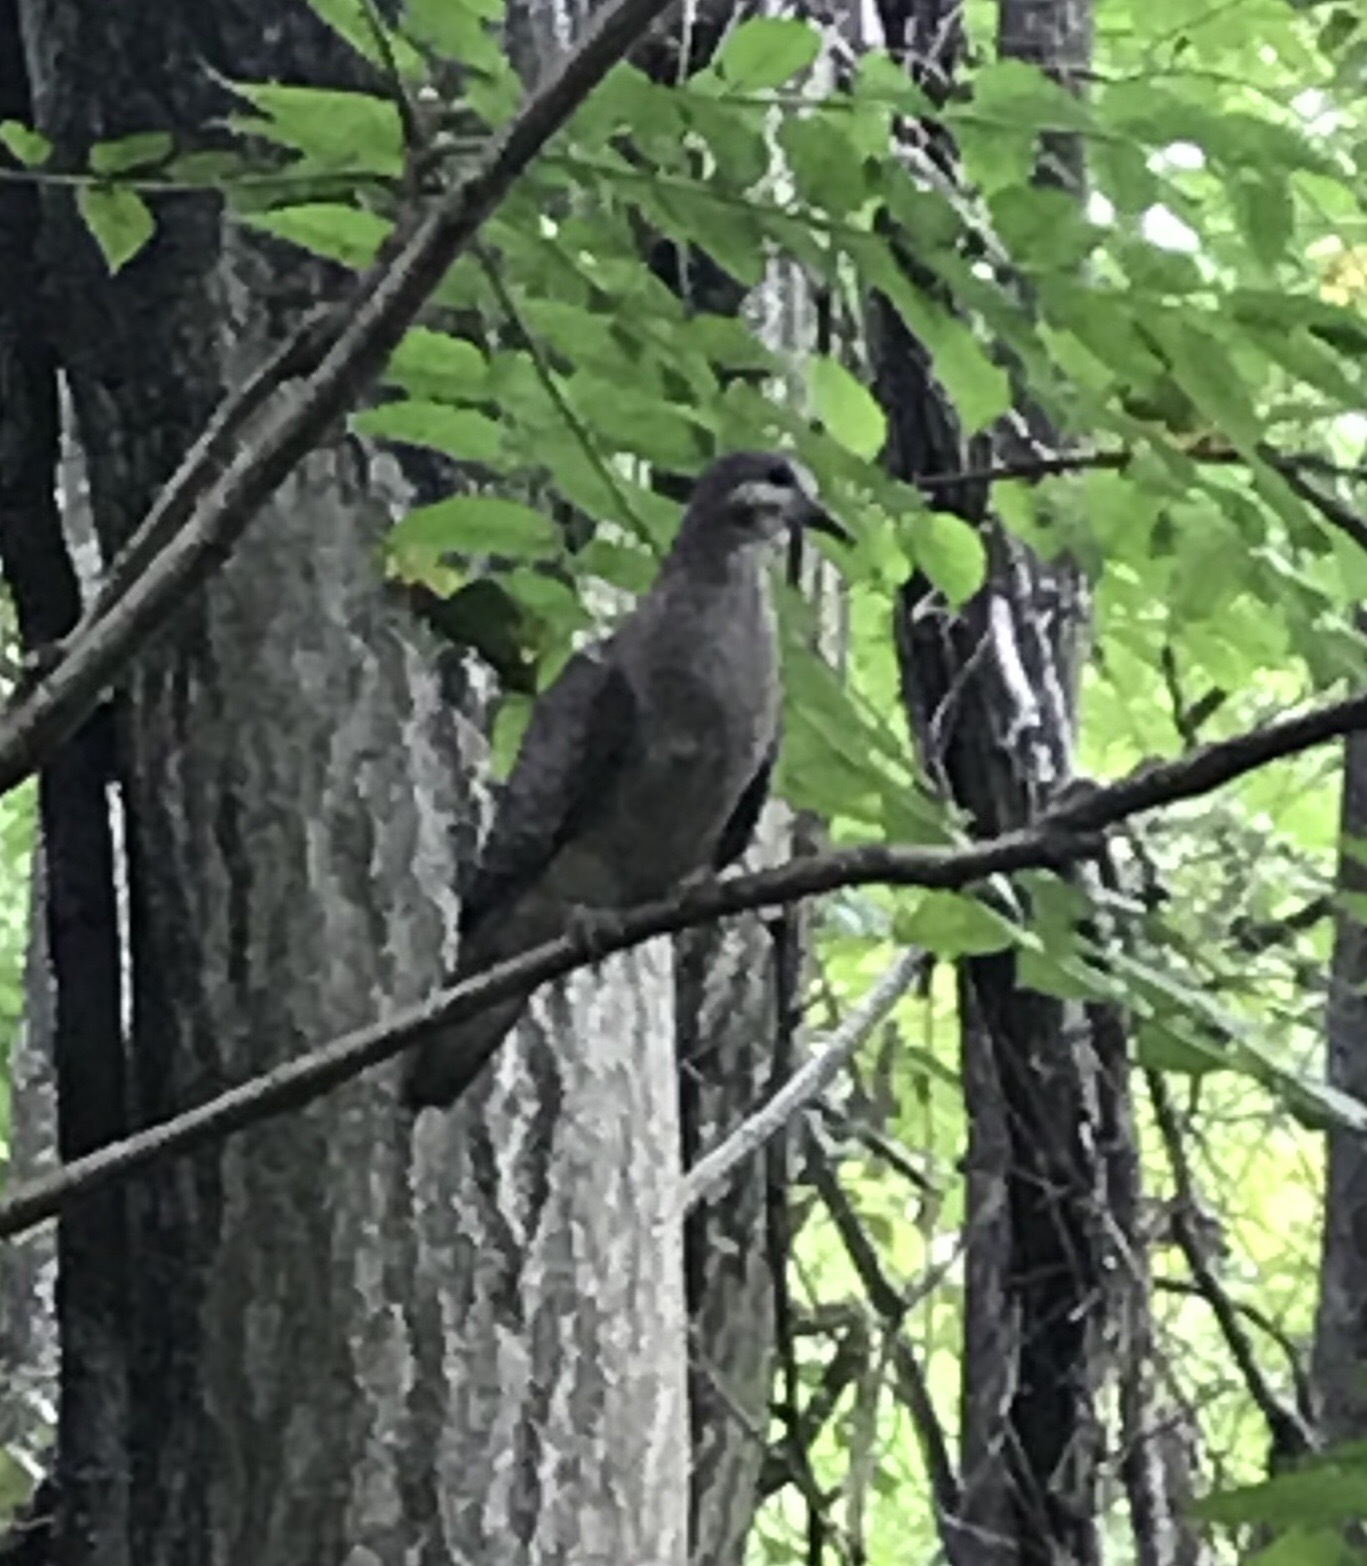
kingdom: Animalia
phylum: Chordata
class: Aves
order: Columbiformes
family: Columbidae
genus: Zenaida
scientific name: Zenaida macroura
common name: Mourning dove
